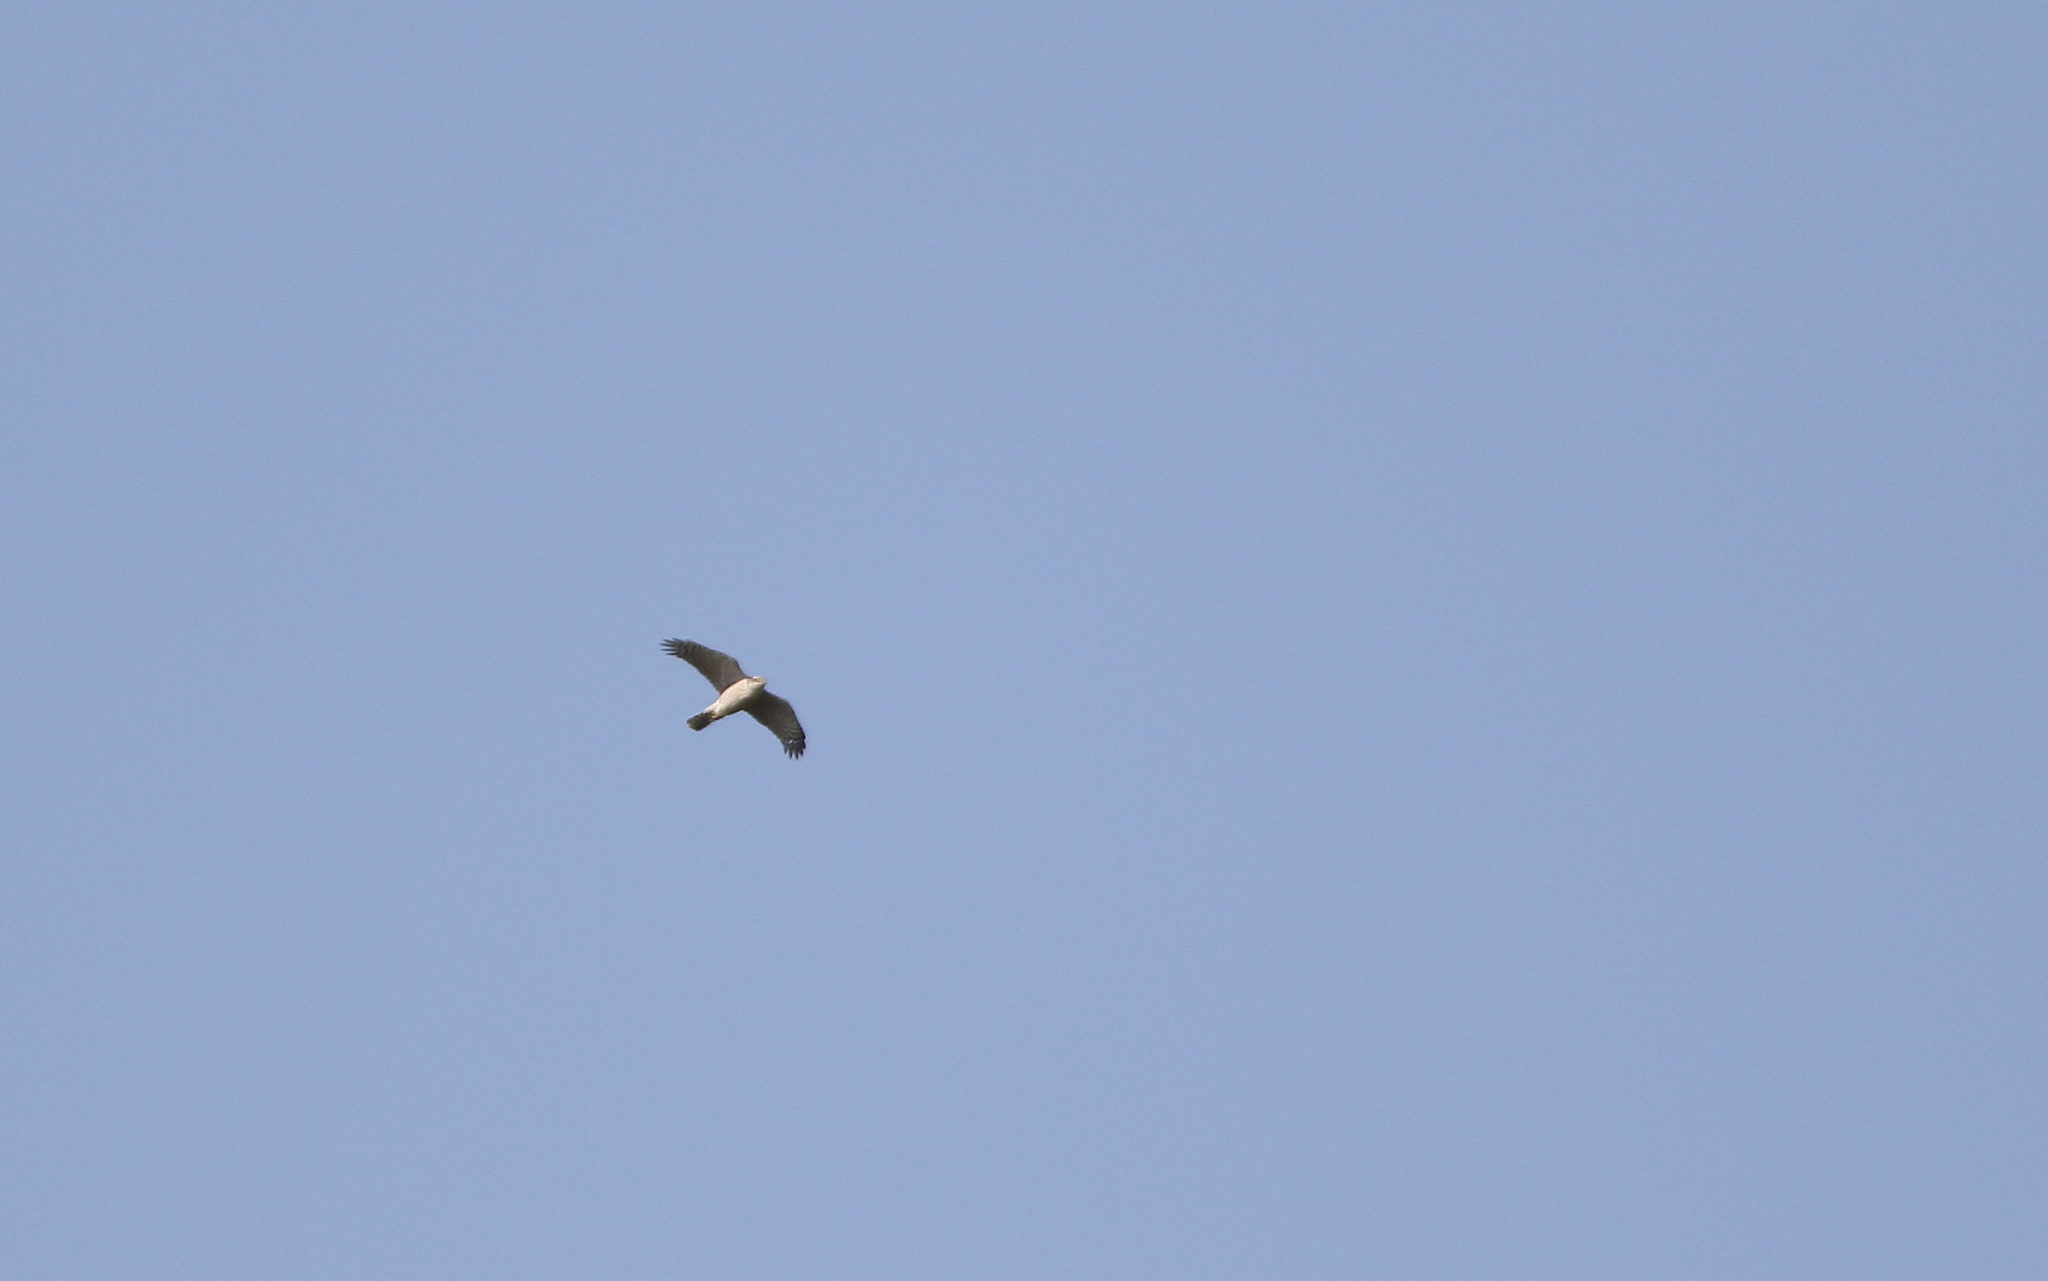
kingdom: Animalia
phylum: Chordata
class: Aves
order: Accipitriformes
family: Accipitridae
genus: Accipiter
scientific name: Accipiter nisus
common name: Eurasian sparrowhawk
